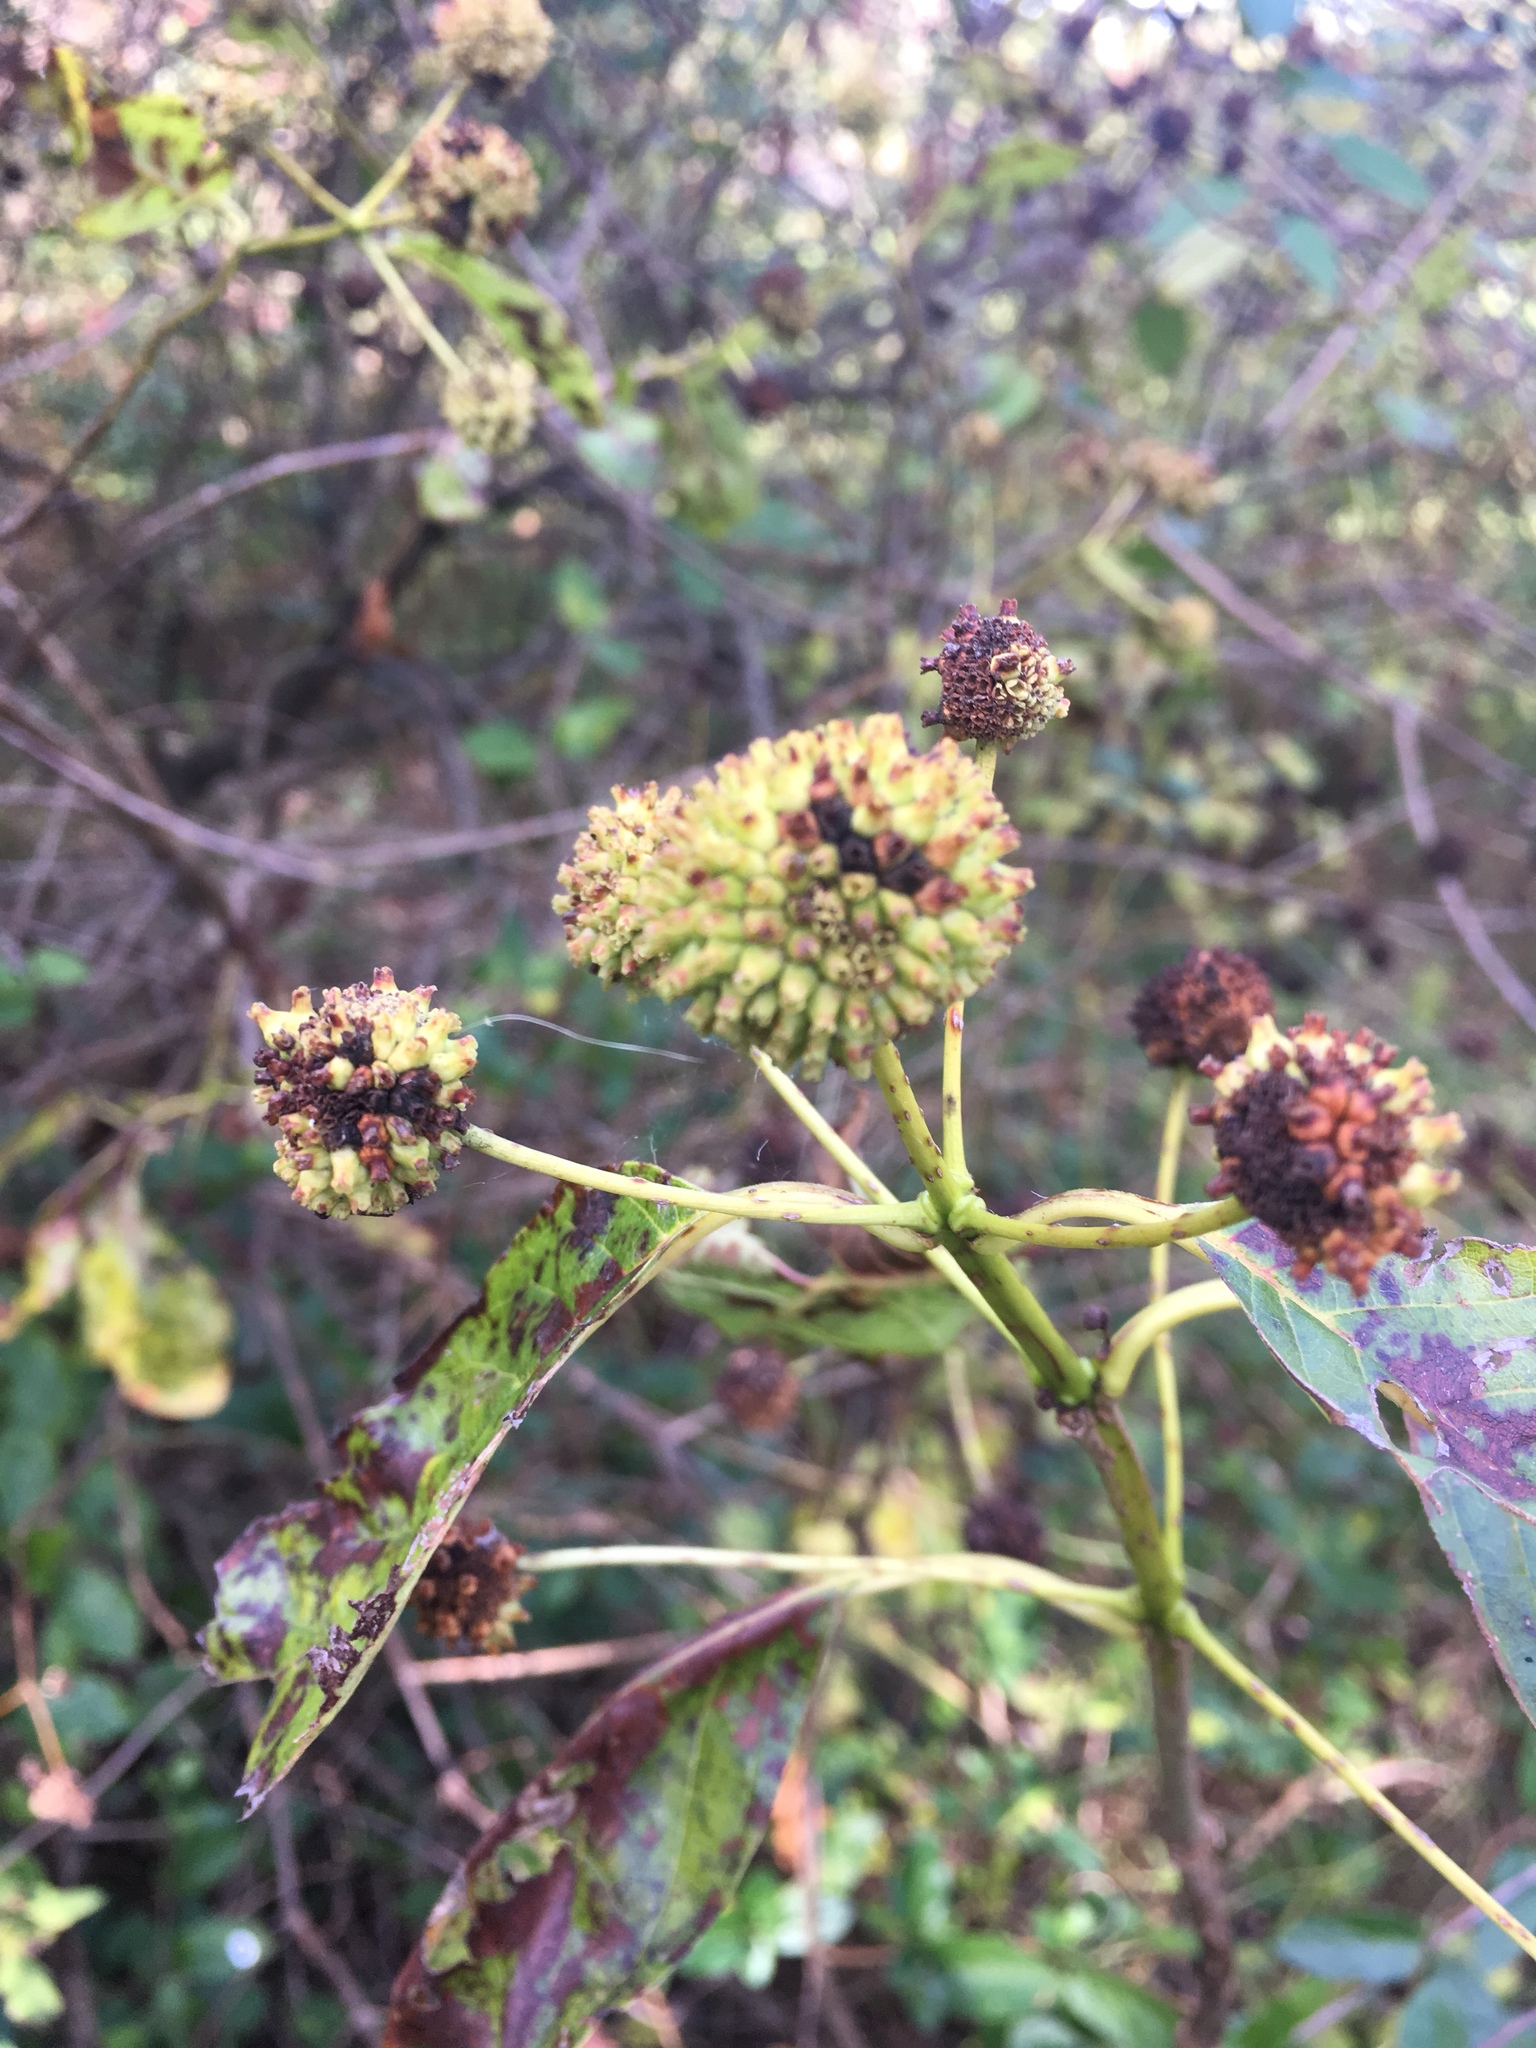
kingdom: Plantae
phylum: Tracheophyta
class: Magnoliopsida
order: Gentianales
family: Rubiaceae
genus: Cephalanthus
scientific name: Cephalanthus occidentalis
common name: Button-willow
